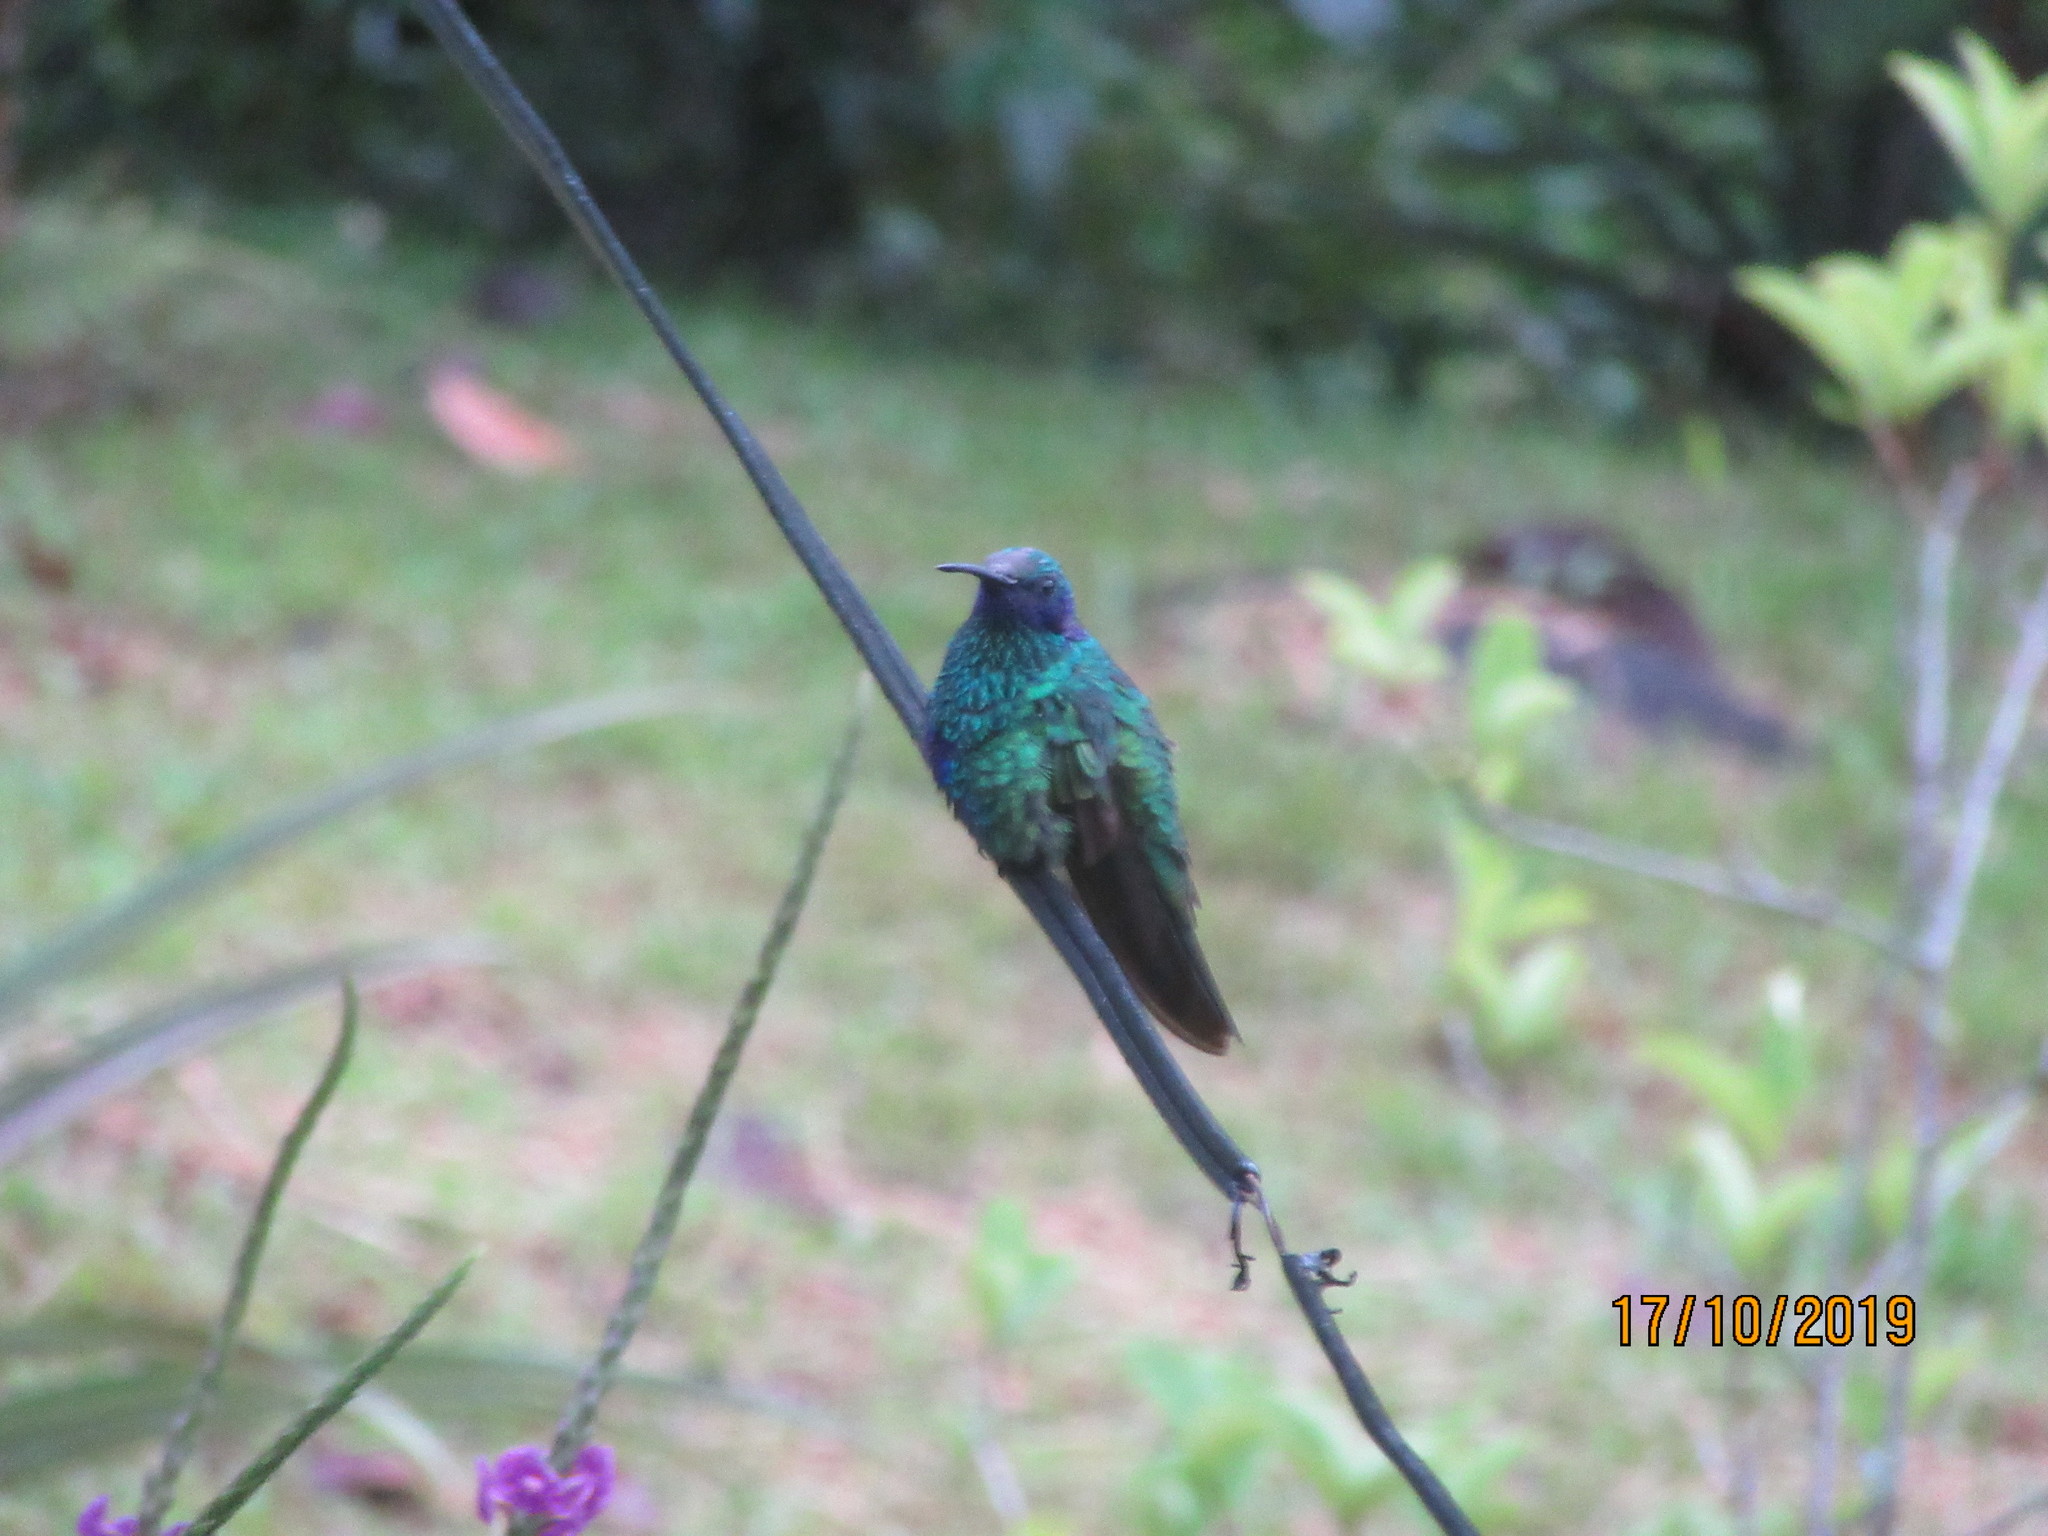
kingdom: Animalia
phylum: Chordata
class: Aves
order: Apodiformes
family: Trochilidae
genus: Colibri
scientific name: Colibri coruscans
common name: Sparkling violetear
